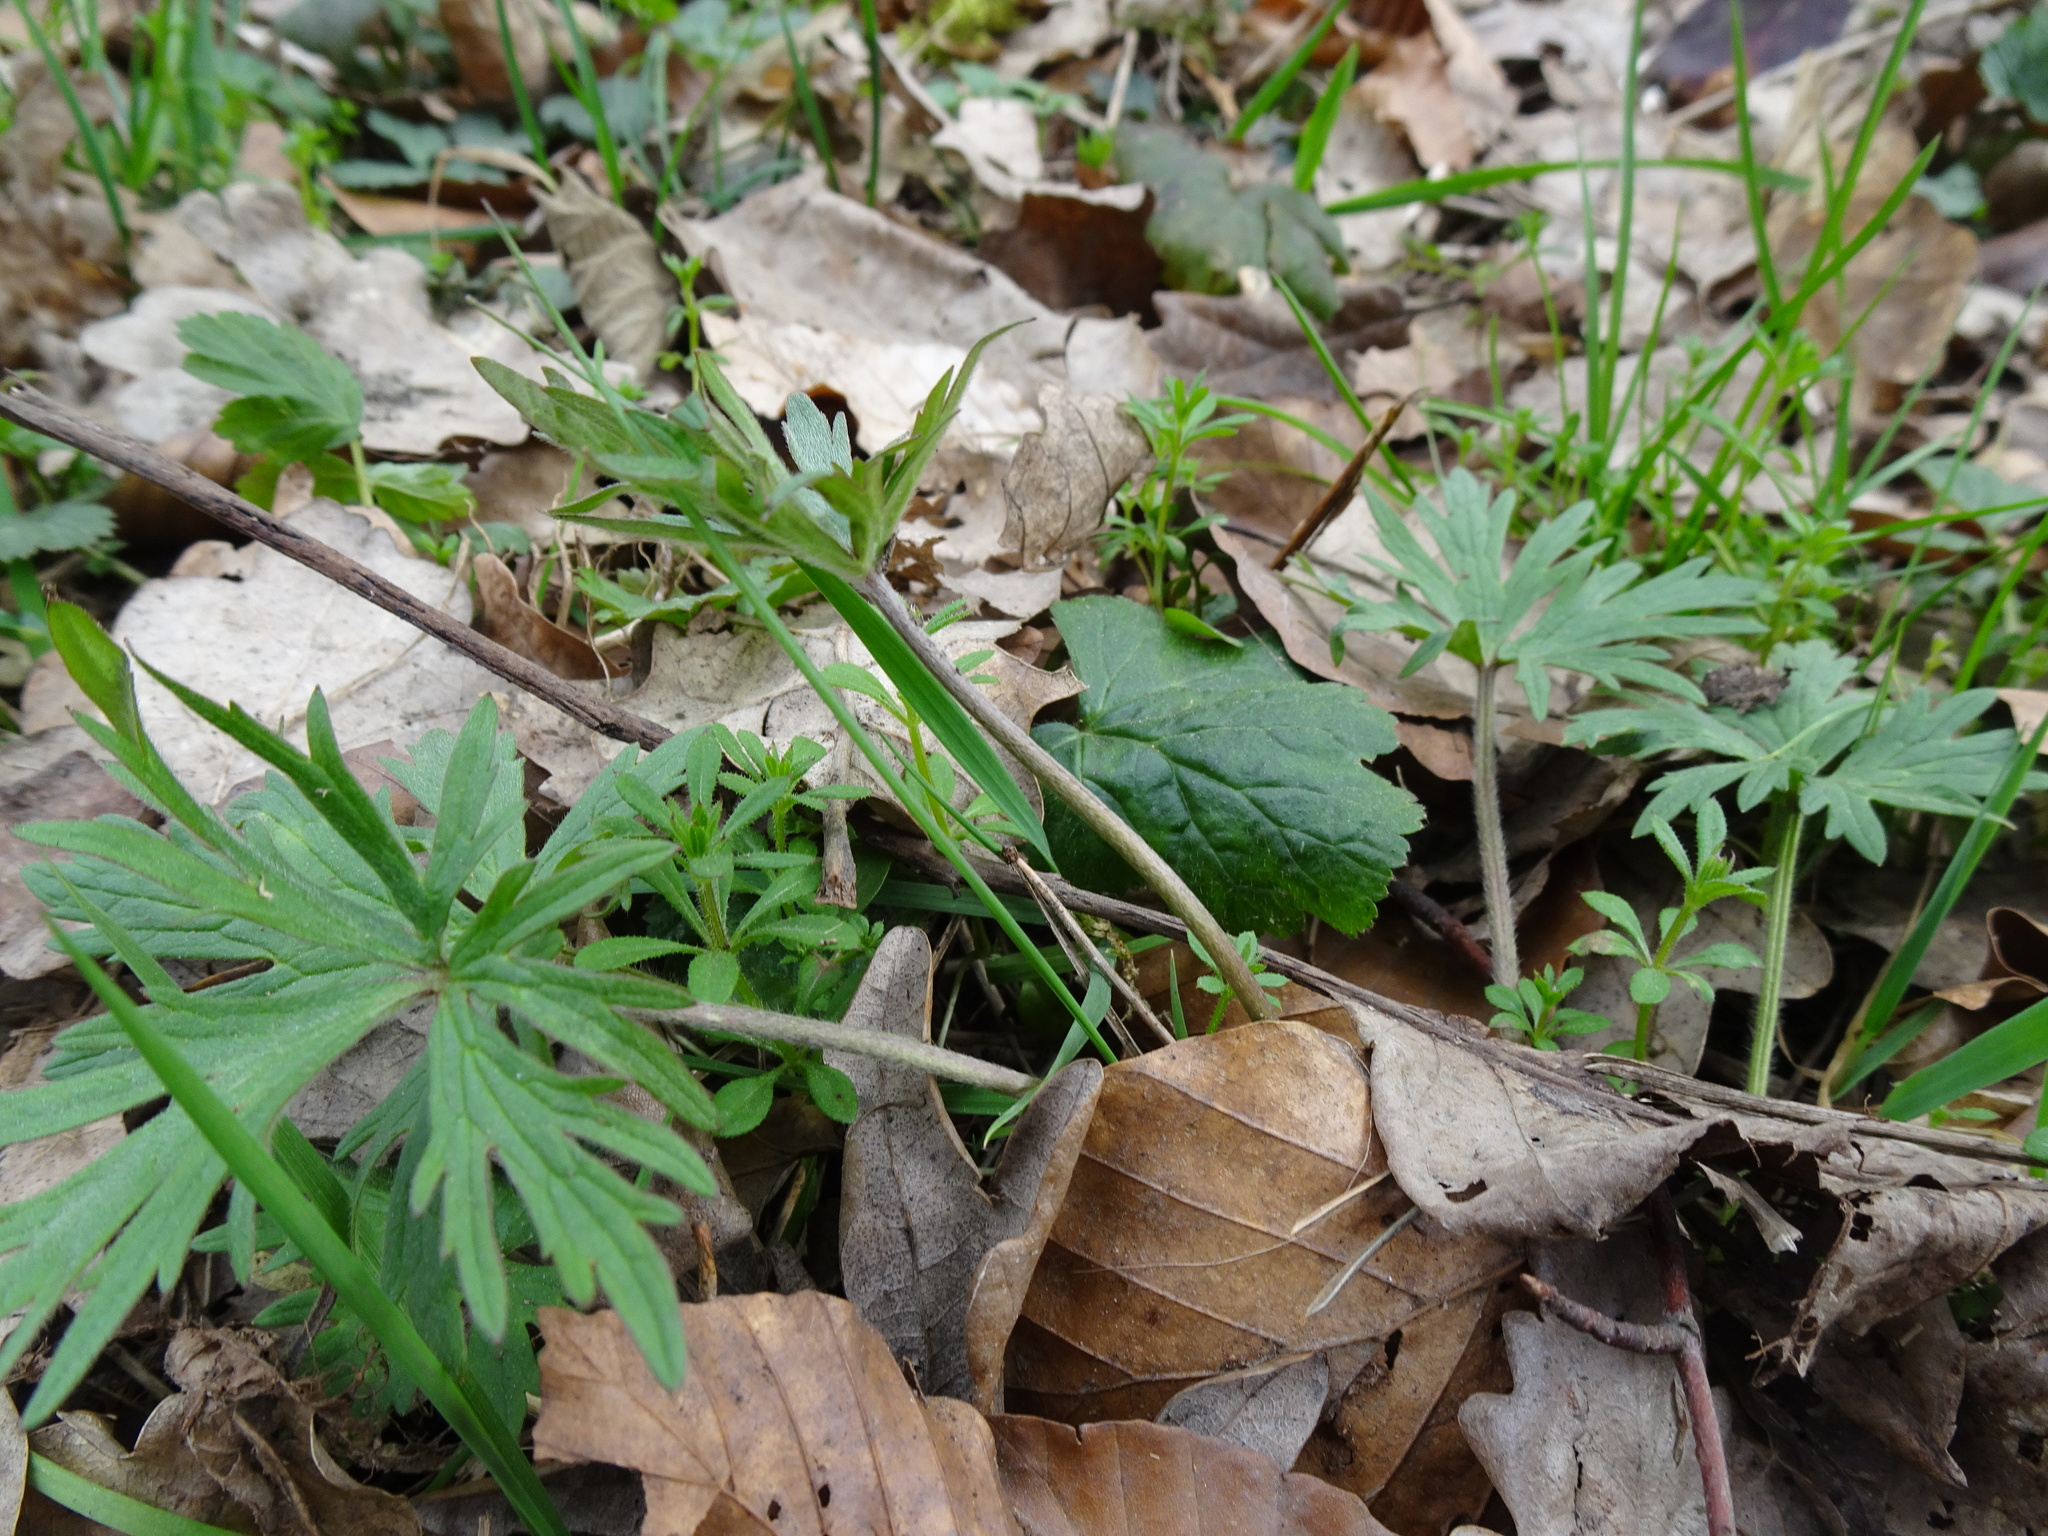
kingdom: Plantae
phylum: Tracheophyta
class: Magnoliopsida
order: Ranunculales
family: Ranunculaceae
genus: Ranunculus
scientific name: Ranunculus acris
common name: Meadow buttercup
